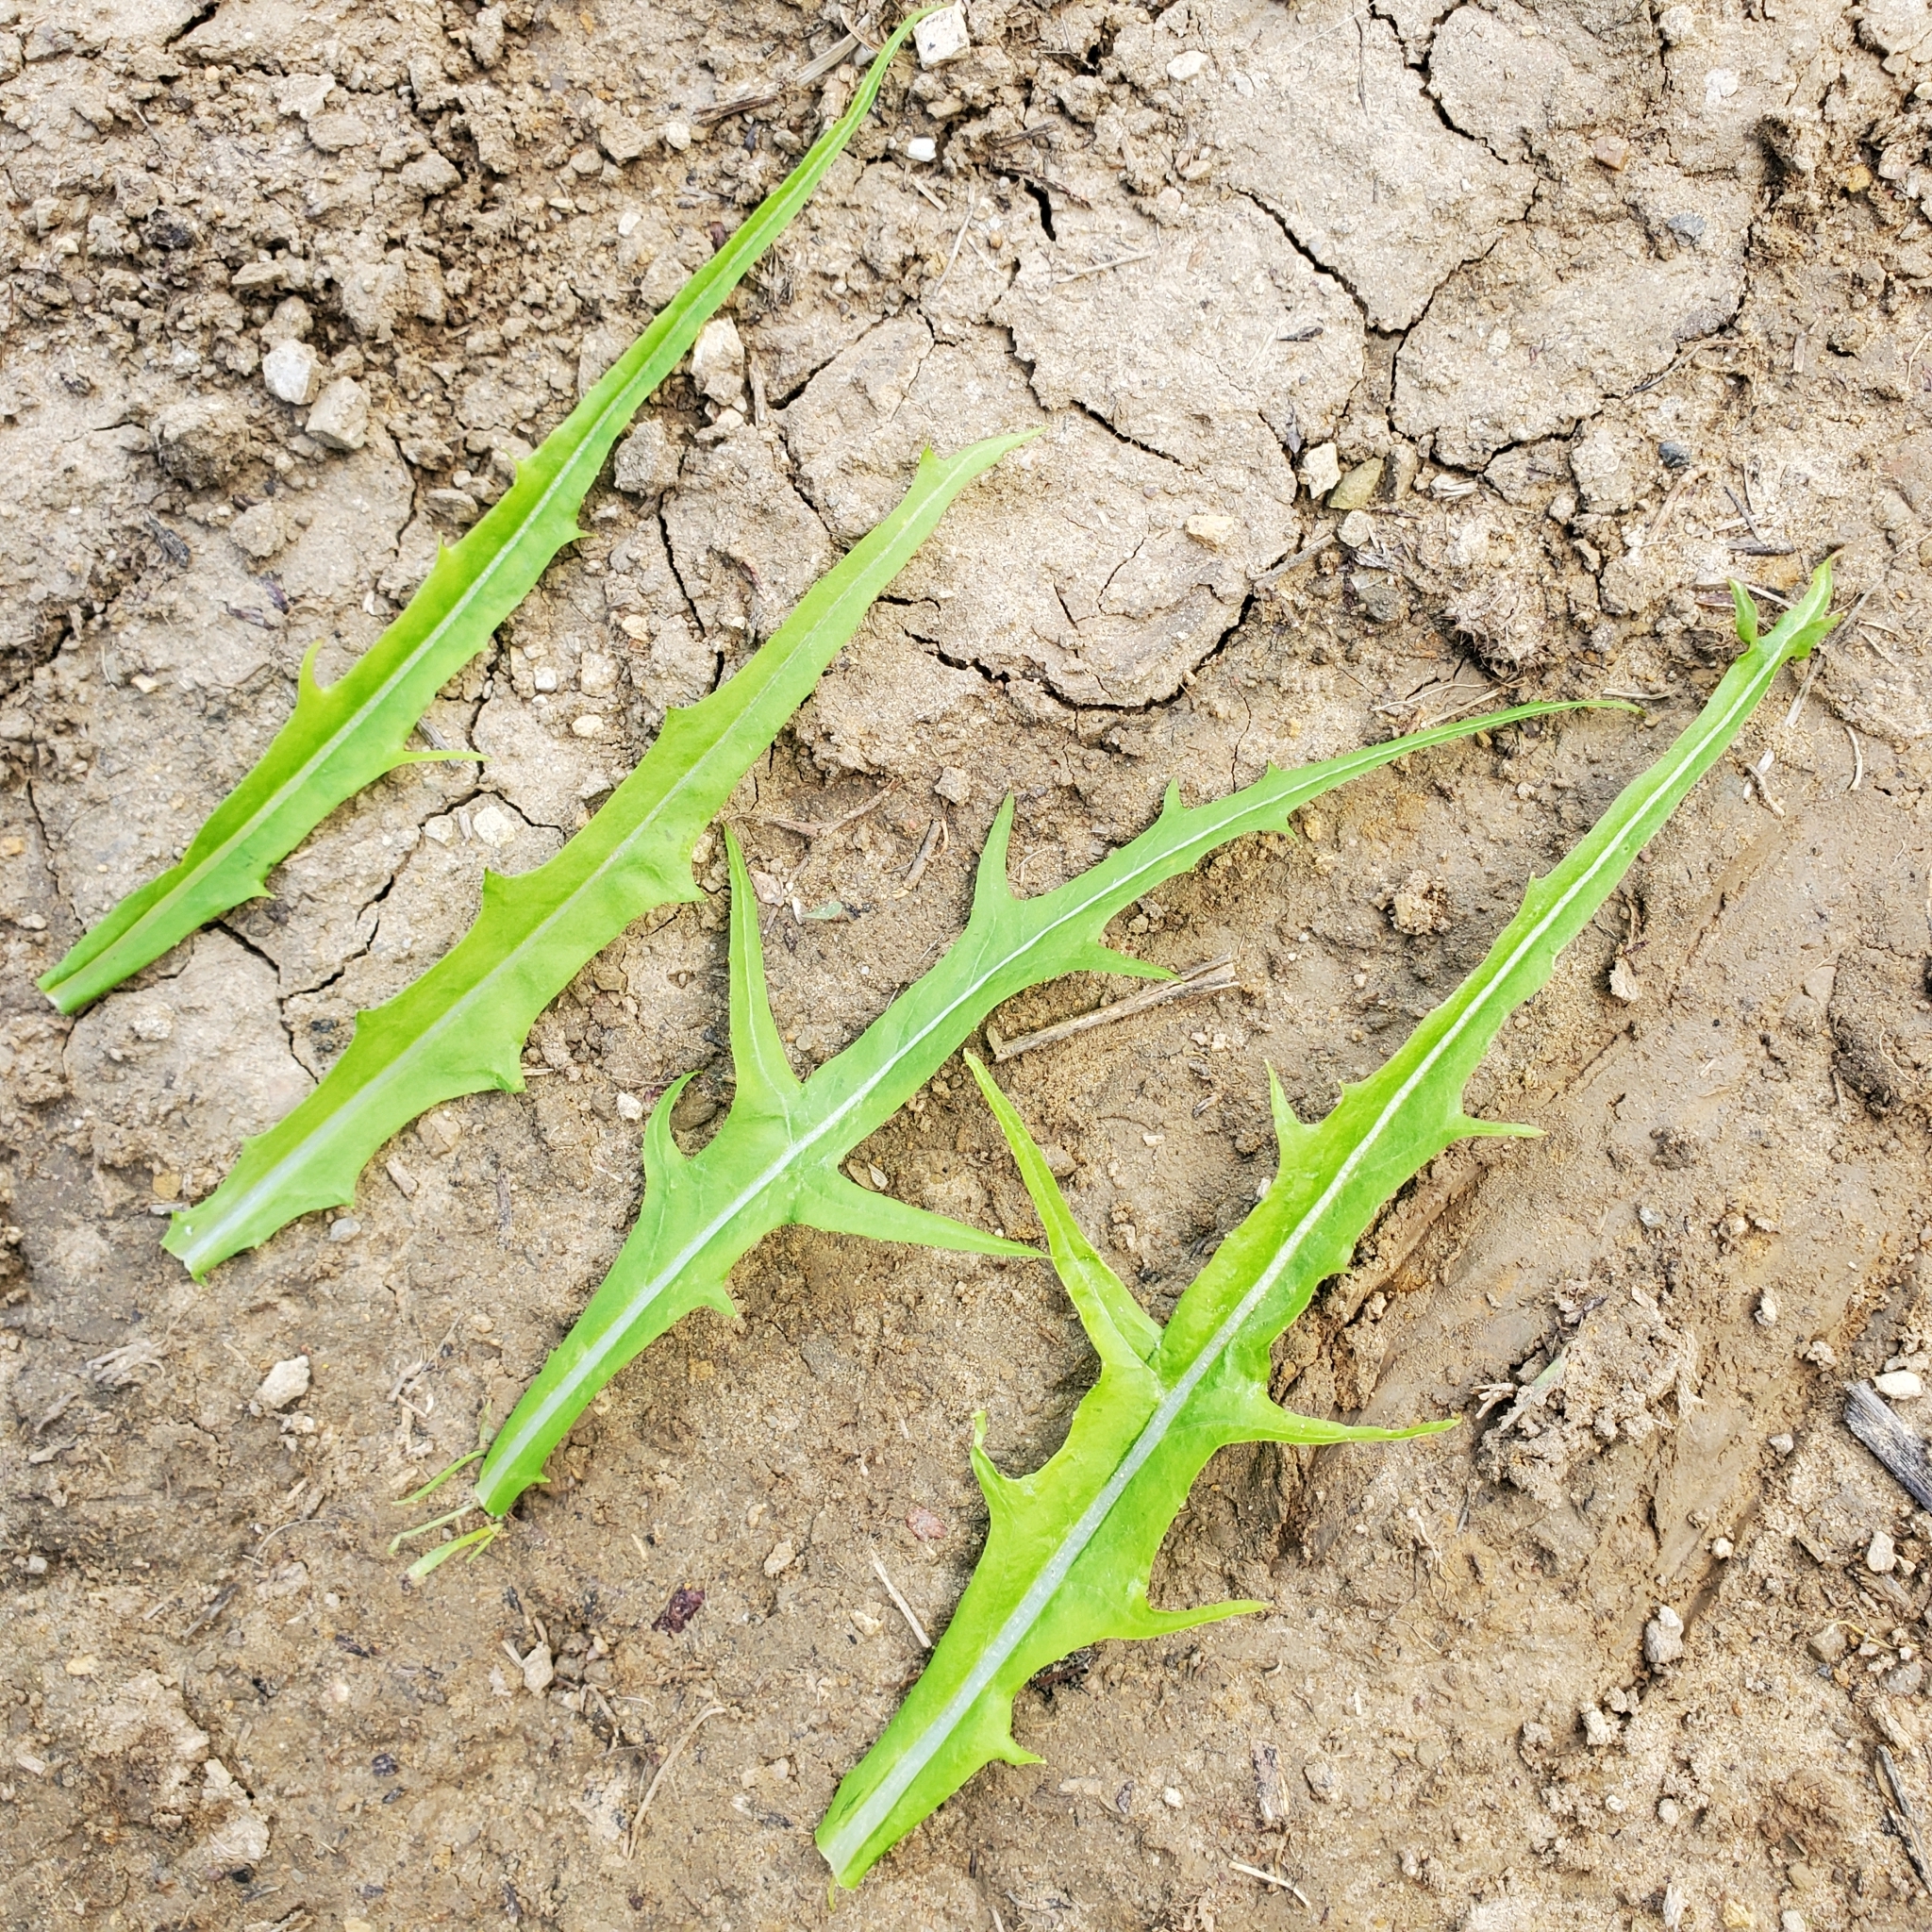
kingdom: Plantae
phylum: Tracheophyta
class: Magnoliopsida
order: Asterales
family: Asteraceae
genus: Malacothrix
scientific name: Malacothrix saxatilis
